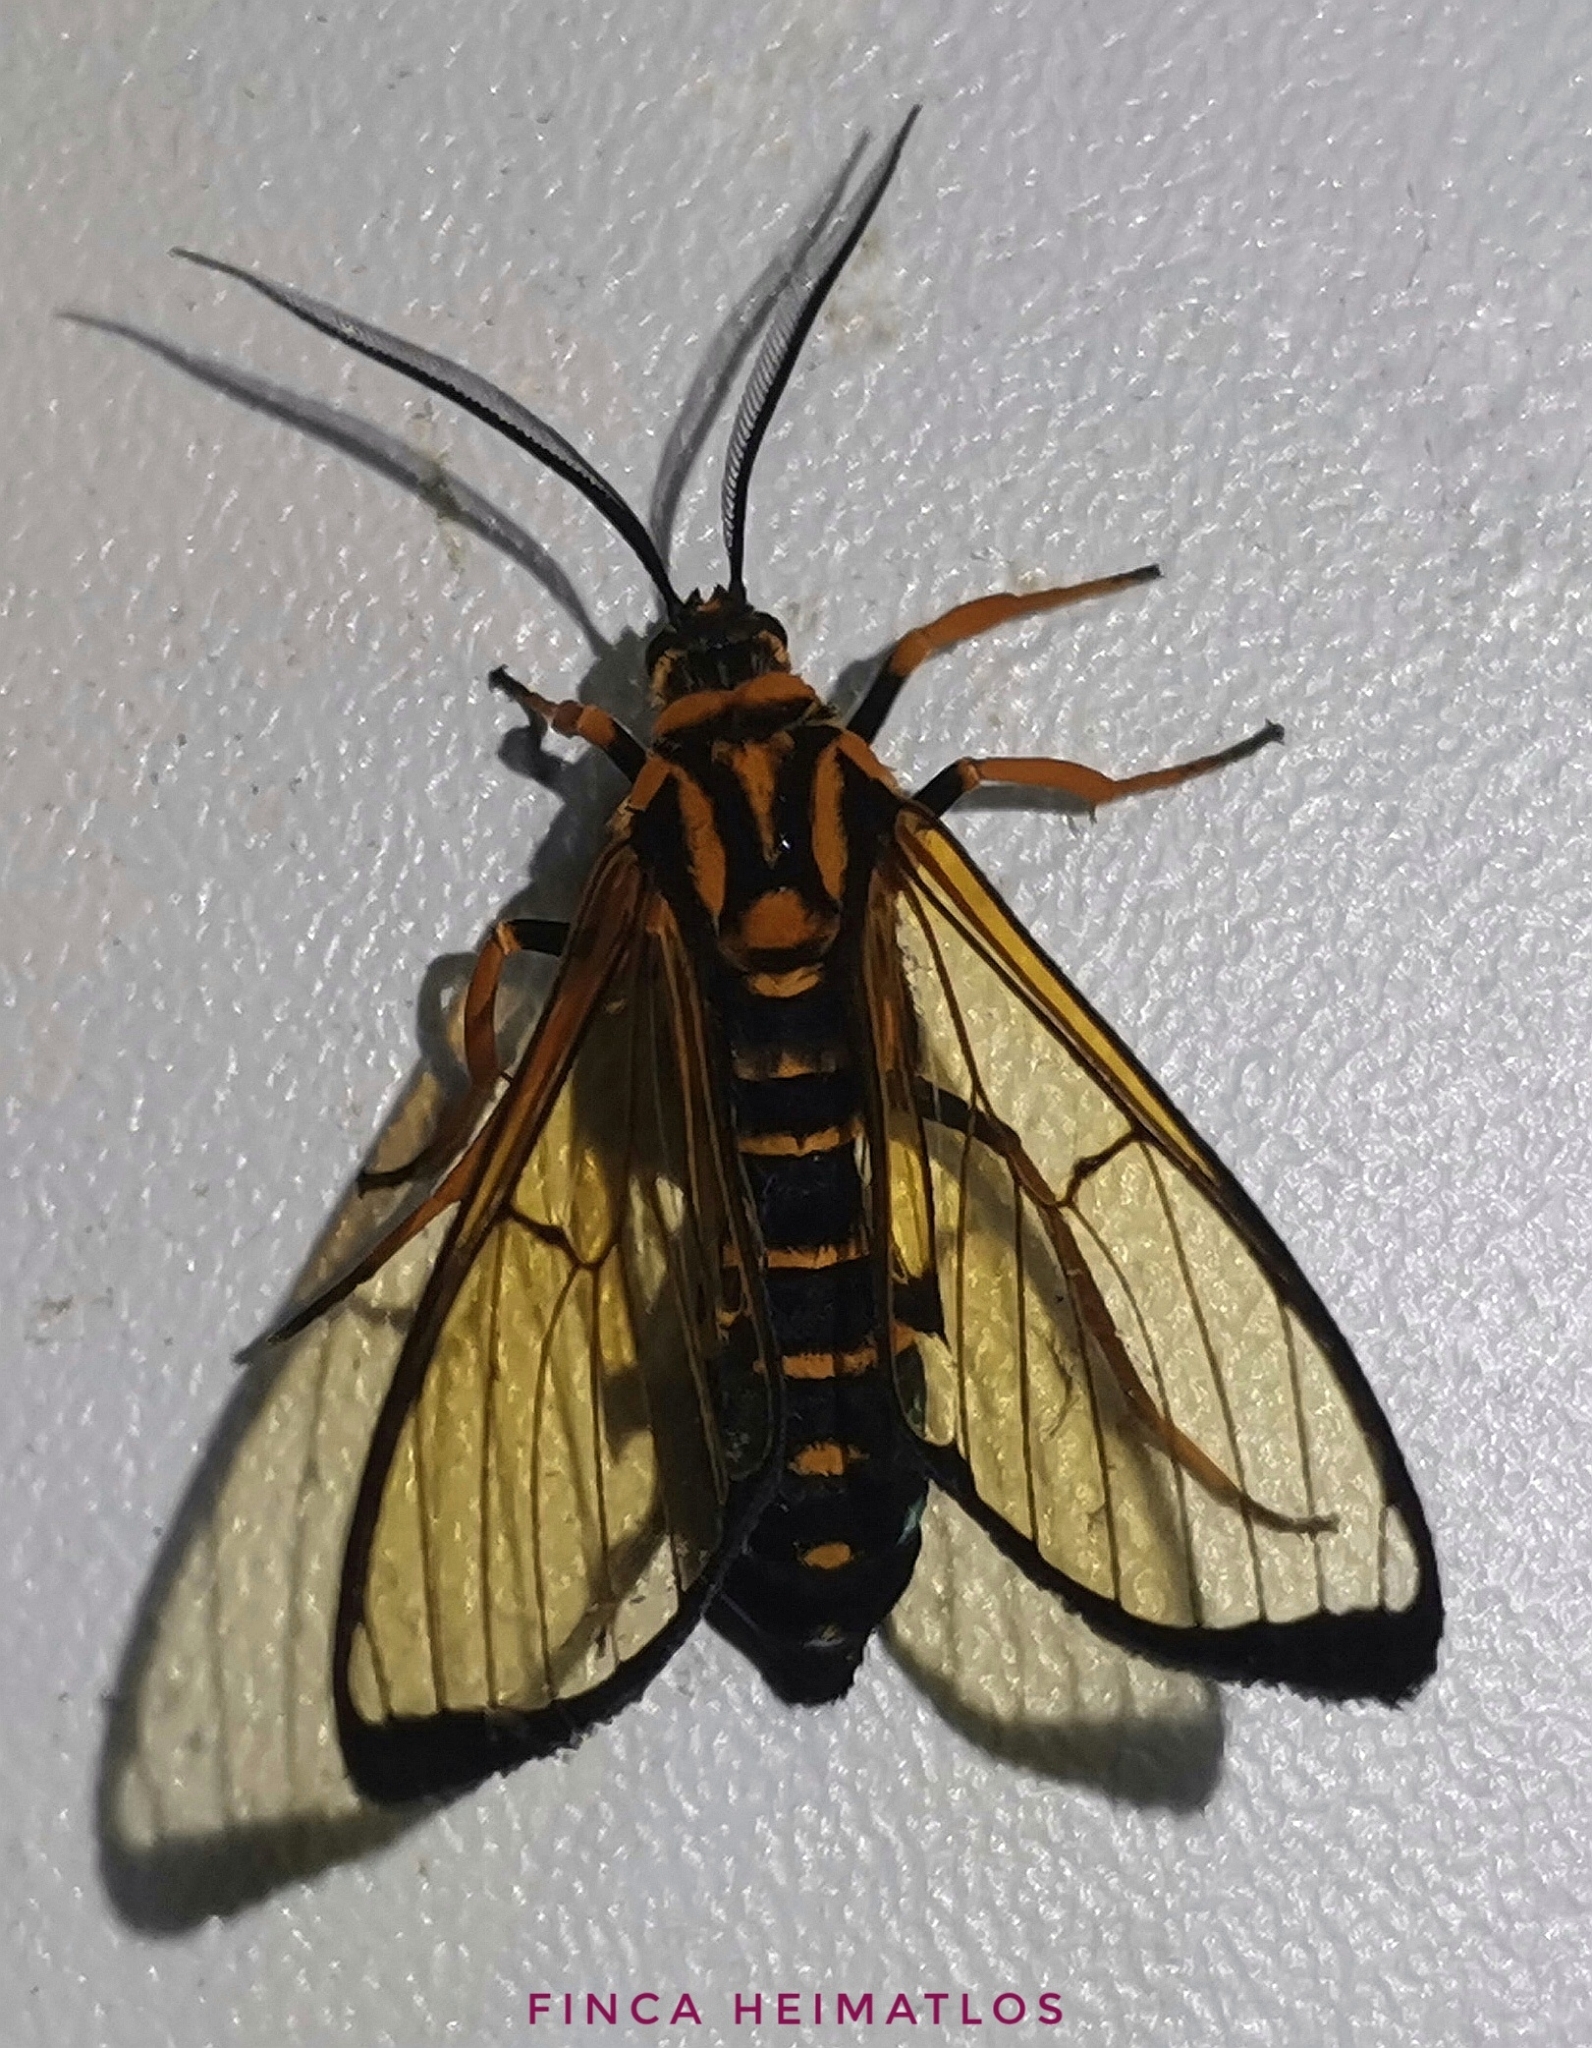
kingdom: Animalia
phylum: Arthropoda
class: Insecta
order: Lepidoptera
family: Erebidae
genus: Trichura
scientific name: Trichura aurifera
